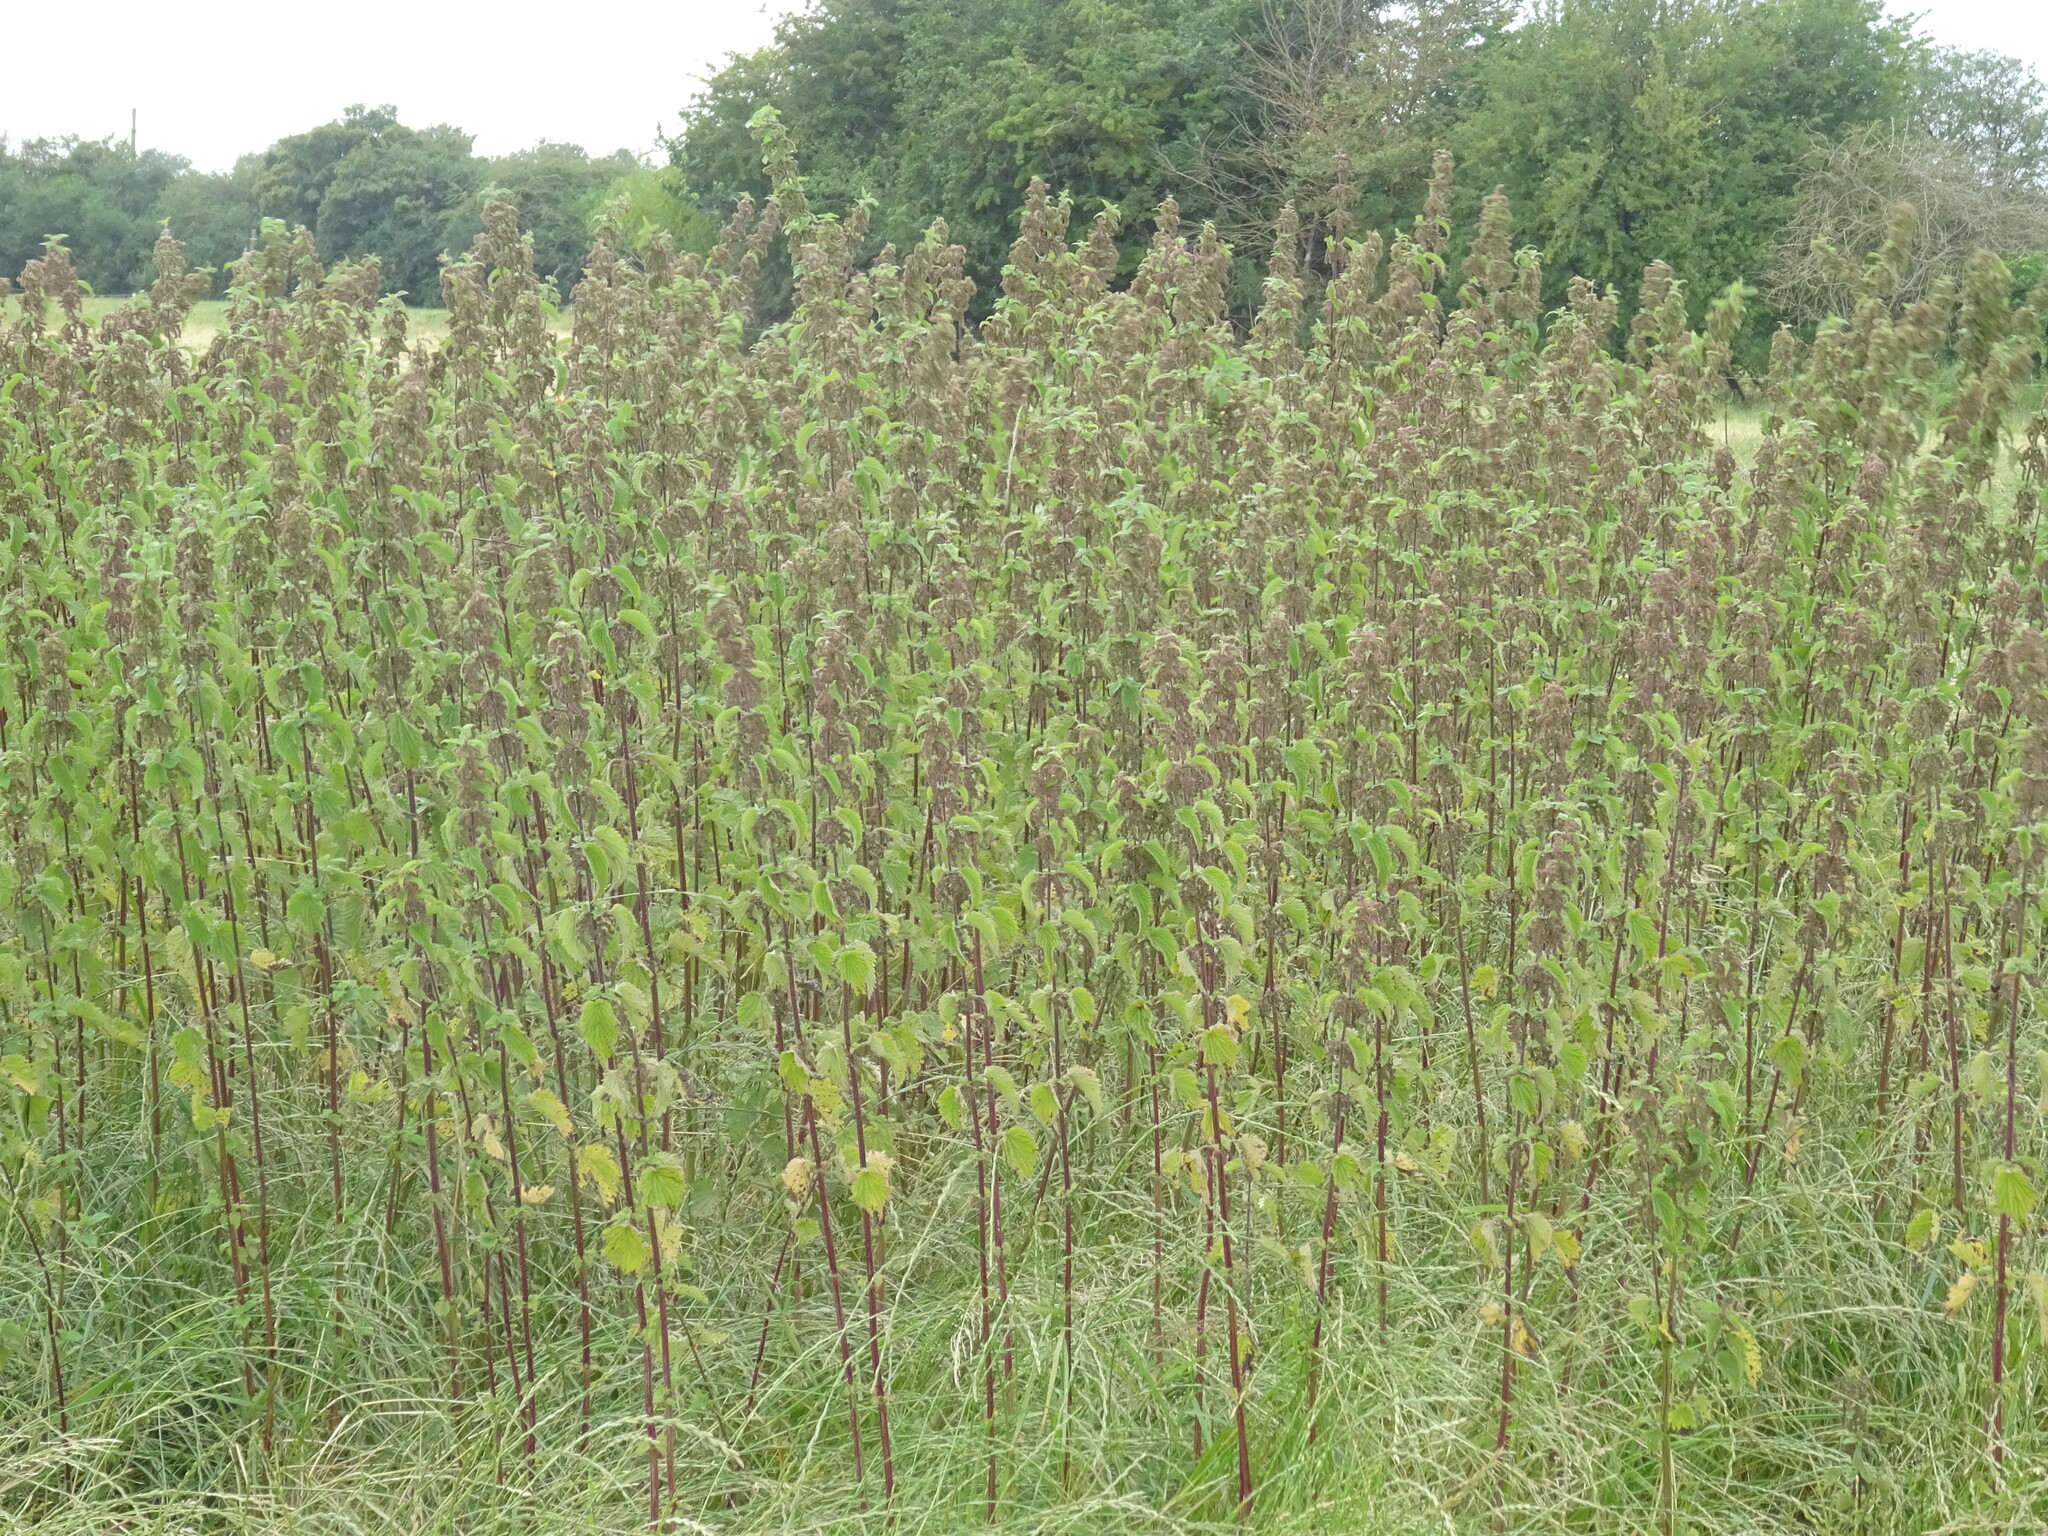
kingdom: Plantae
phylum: Tracheophyta
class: Magnoliopsida
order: Rosales
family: Urticaceae
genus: Urtica
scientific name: Urtica dioica
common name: Common nettle
